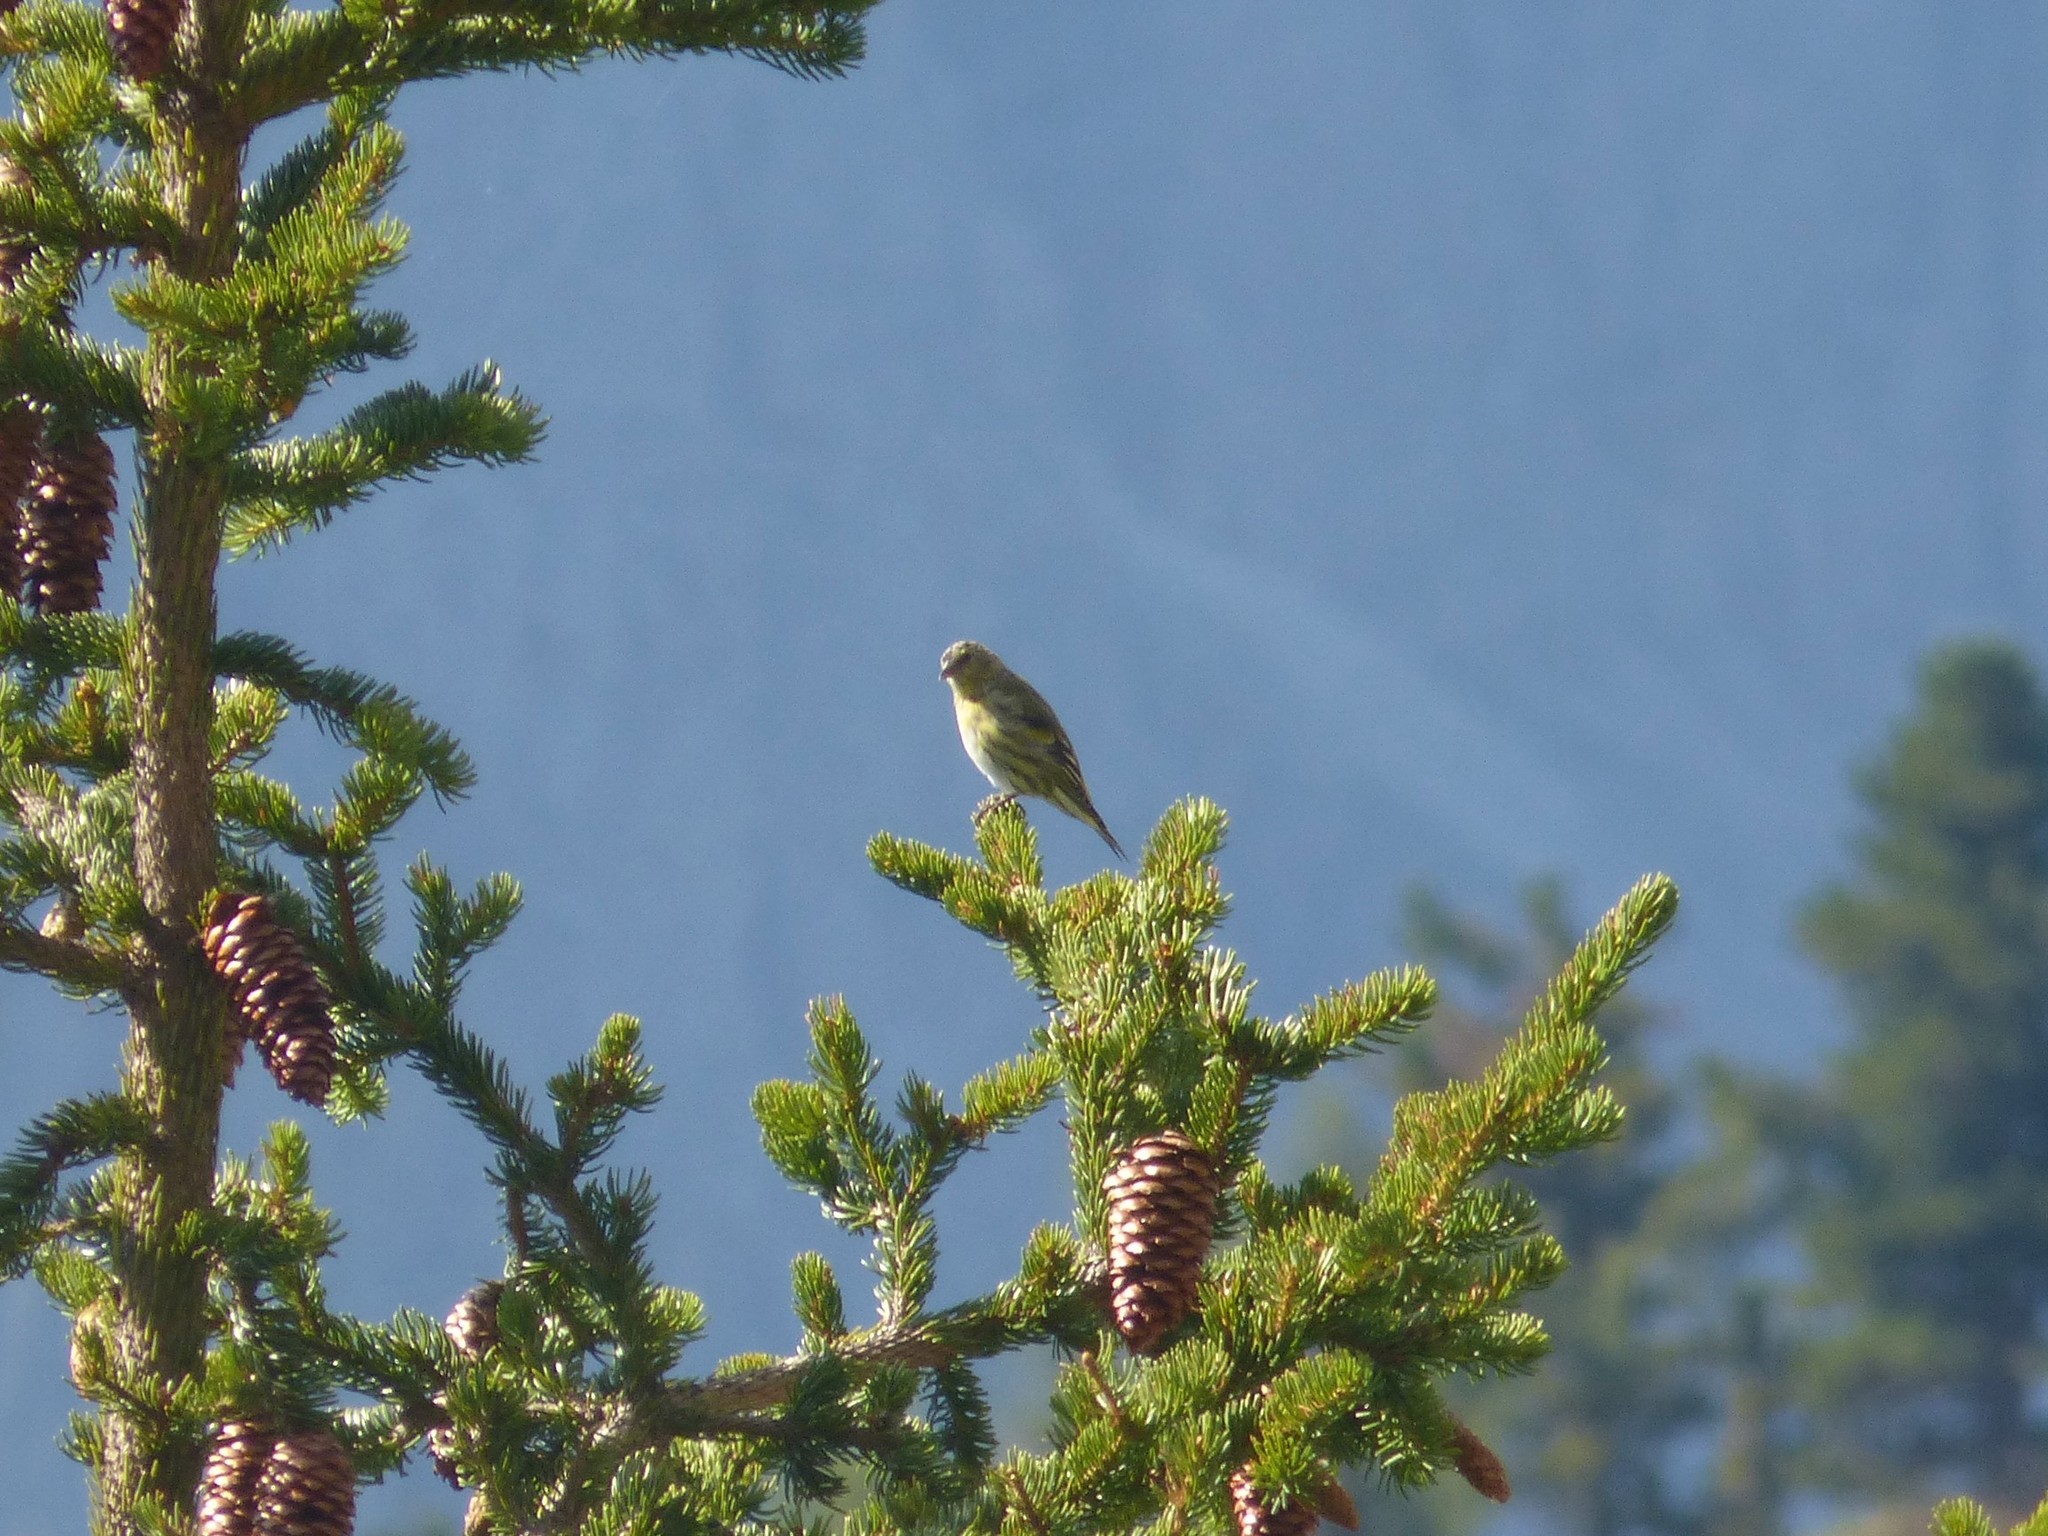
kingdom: Animalia
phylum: Chordata
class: Aves
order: Passeriformes
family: Fringillidae
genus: Spinus
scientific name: Spinus spinus
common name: Eurasian siskin
